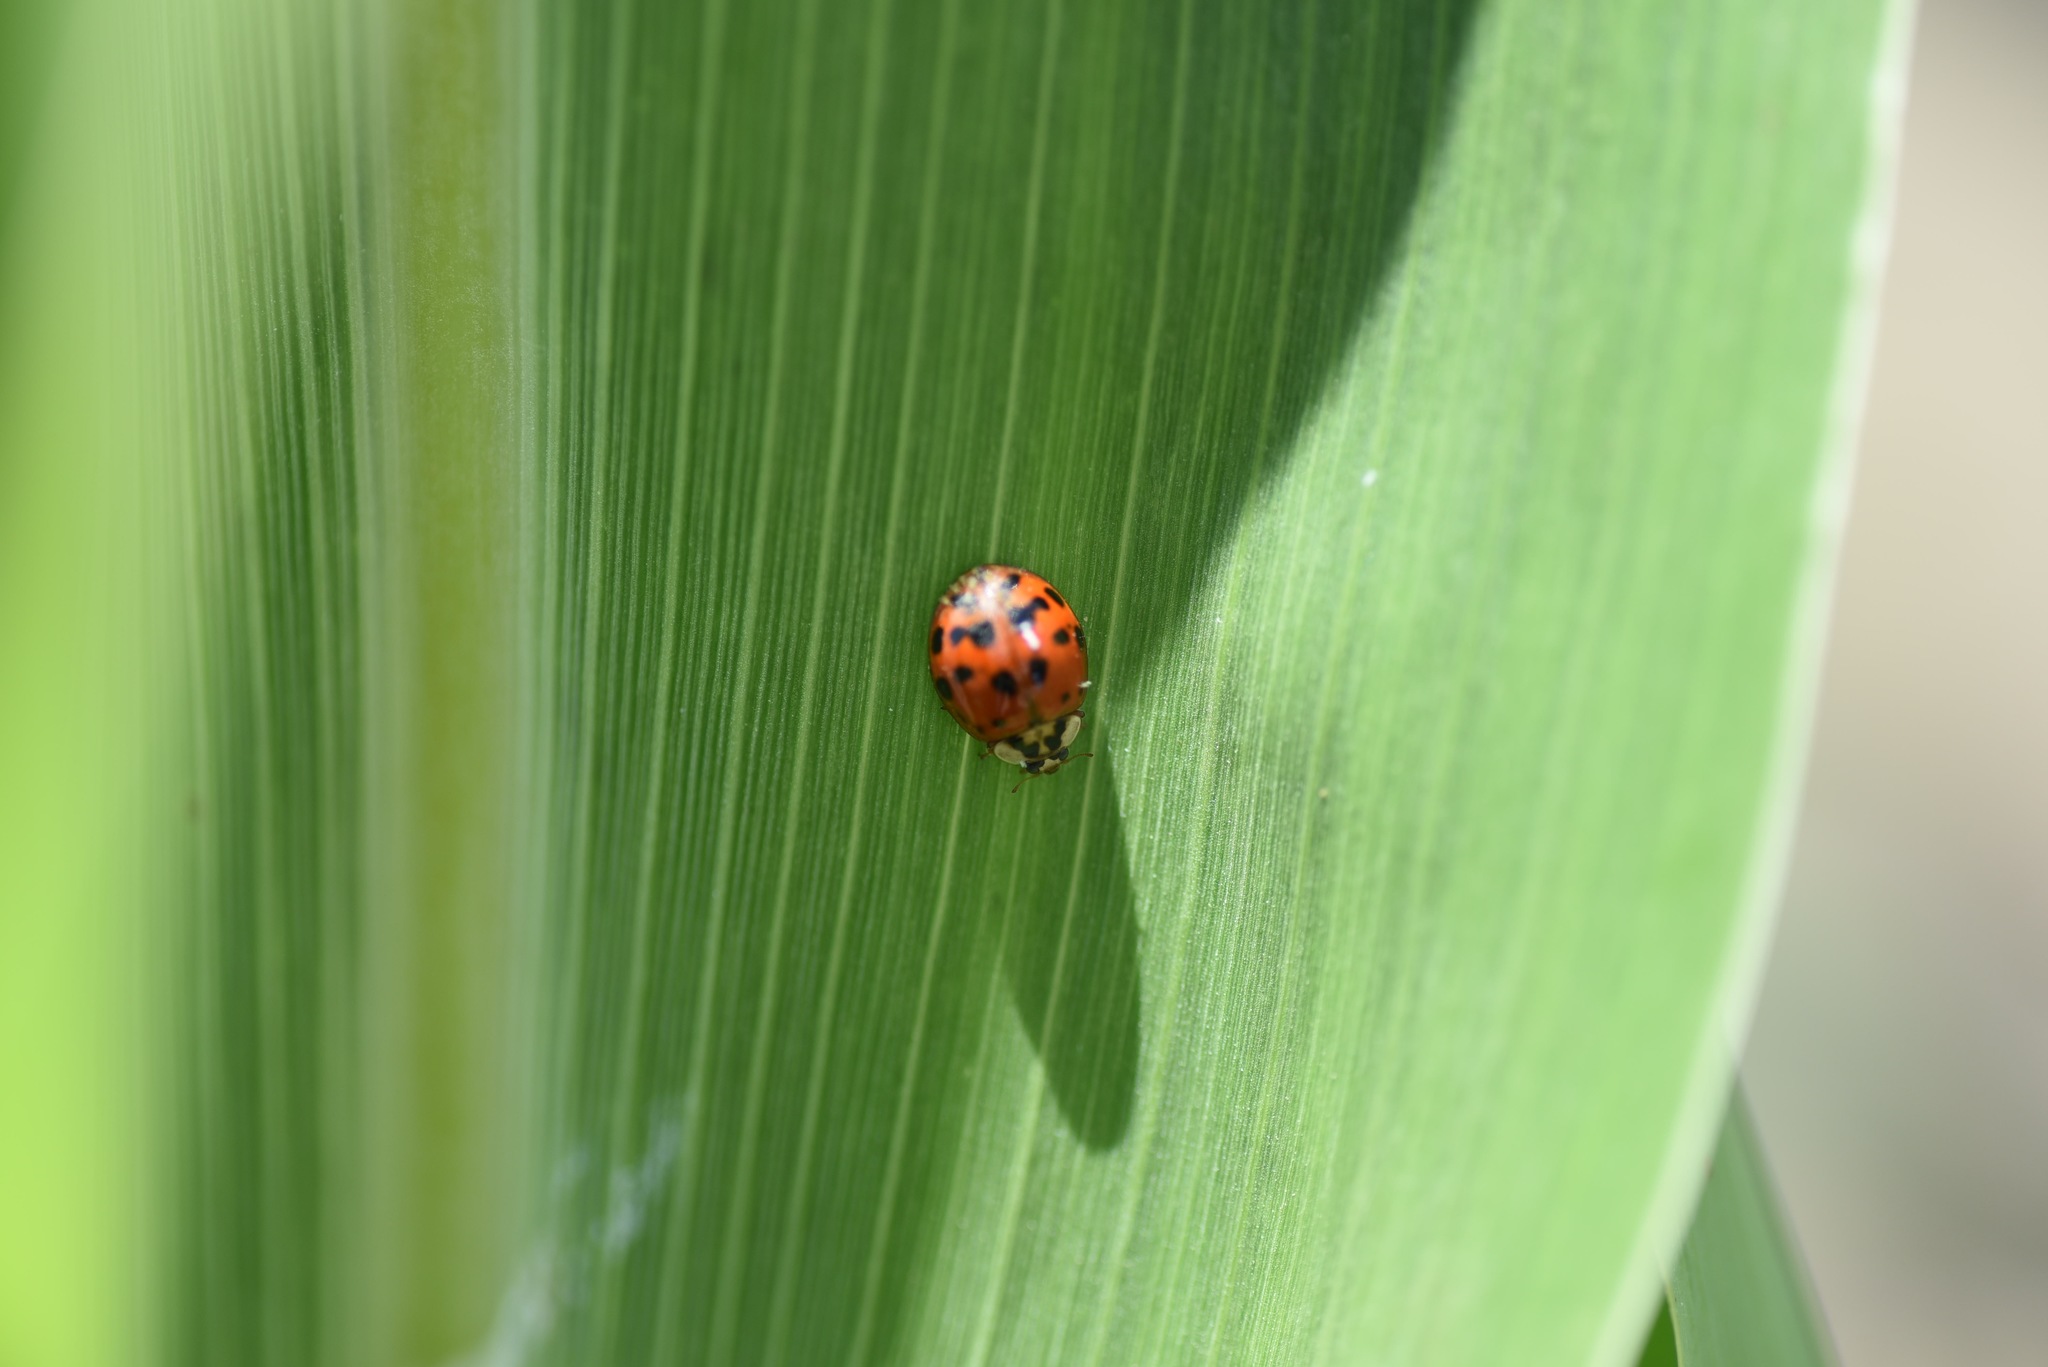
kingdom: Animalia
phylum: Arthropoda
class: Insecta
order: Coleoptera
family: Coccinellidae
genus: Harmonia
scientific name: Harmonia axyridis
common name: Harlequin ladybird
